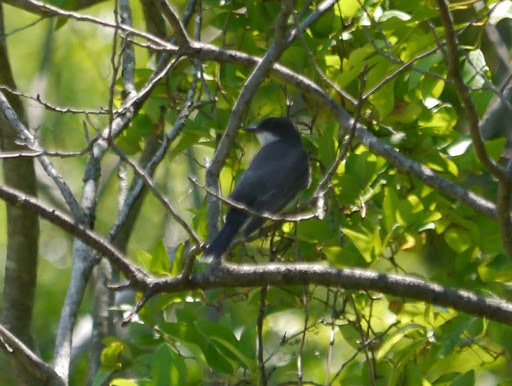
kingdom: Animalia
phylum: Chordata
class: Aves
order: Passeriformes
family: Tyrannidae
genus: Tyrannus
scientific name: Tyrannus tyrannus
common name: Eastern kingbird
